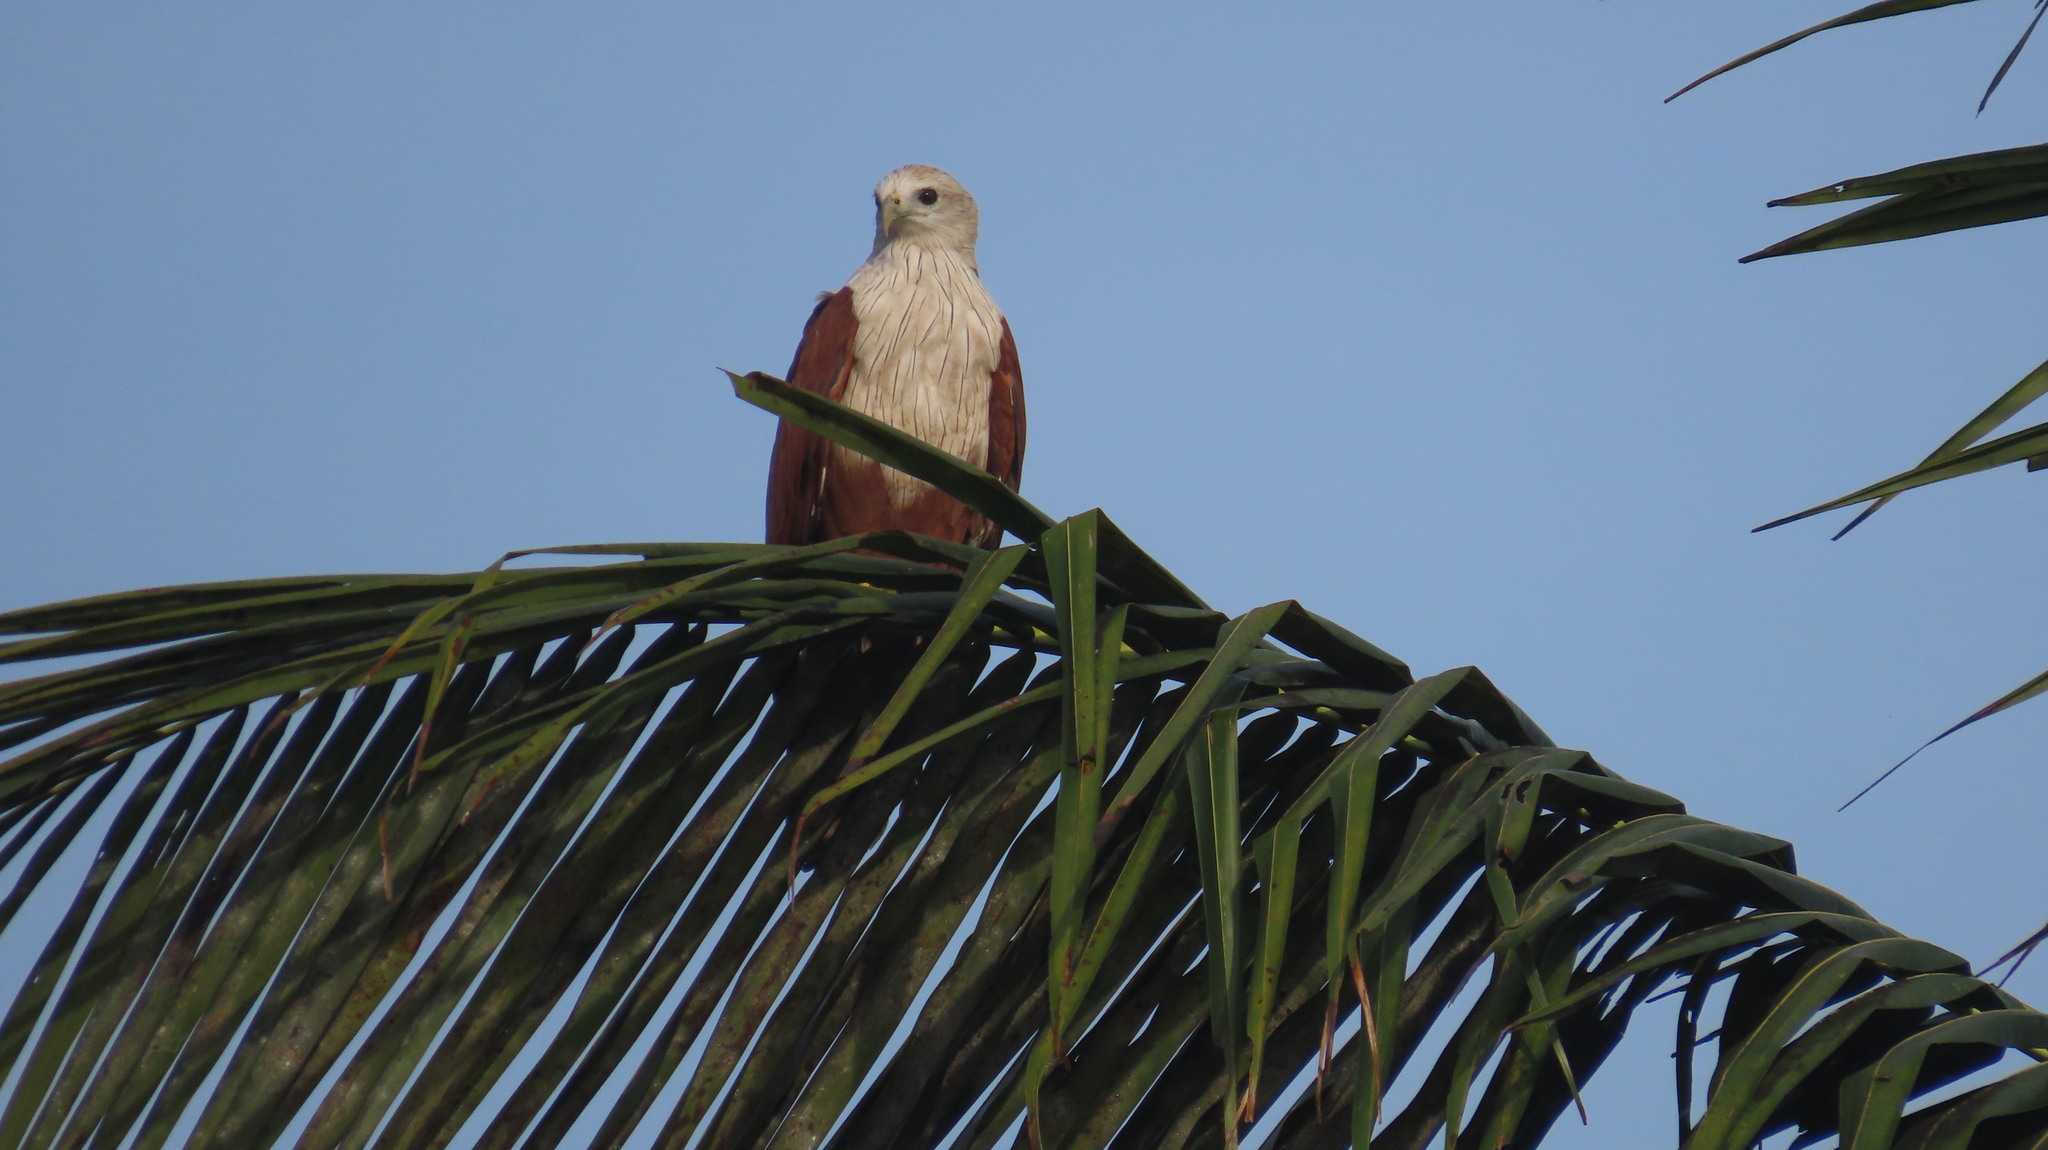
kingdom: Animalia
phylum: Chordata
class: Aves
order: Accipitriformes
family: Accipitridae
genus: Haliastur
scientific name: Haliastur indus
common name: Brahminy kite
